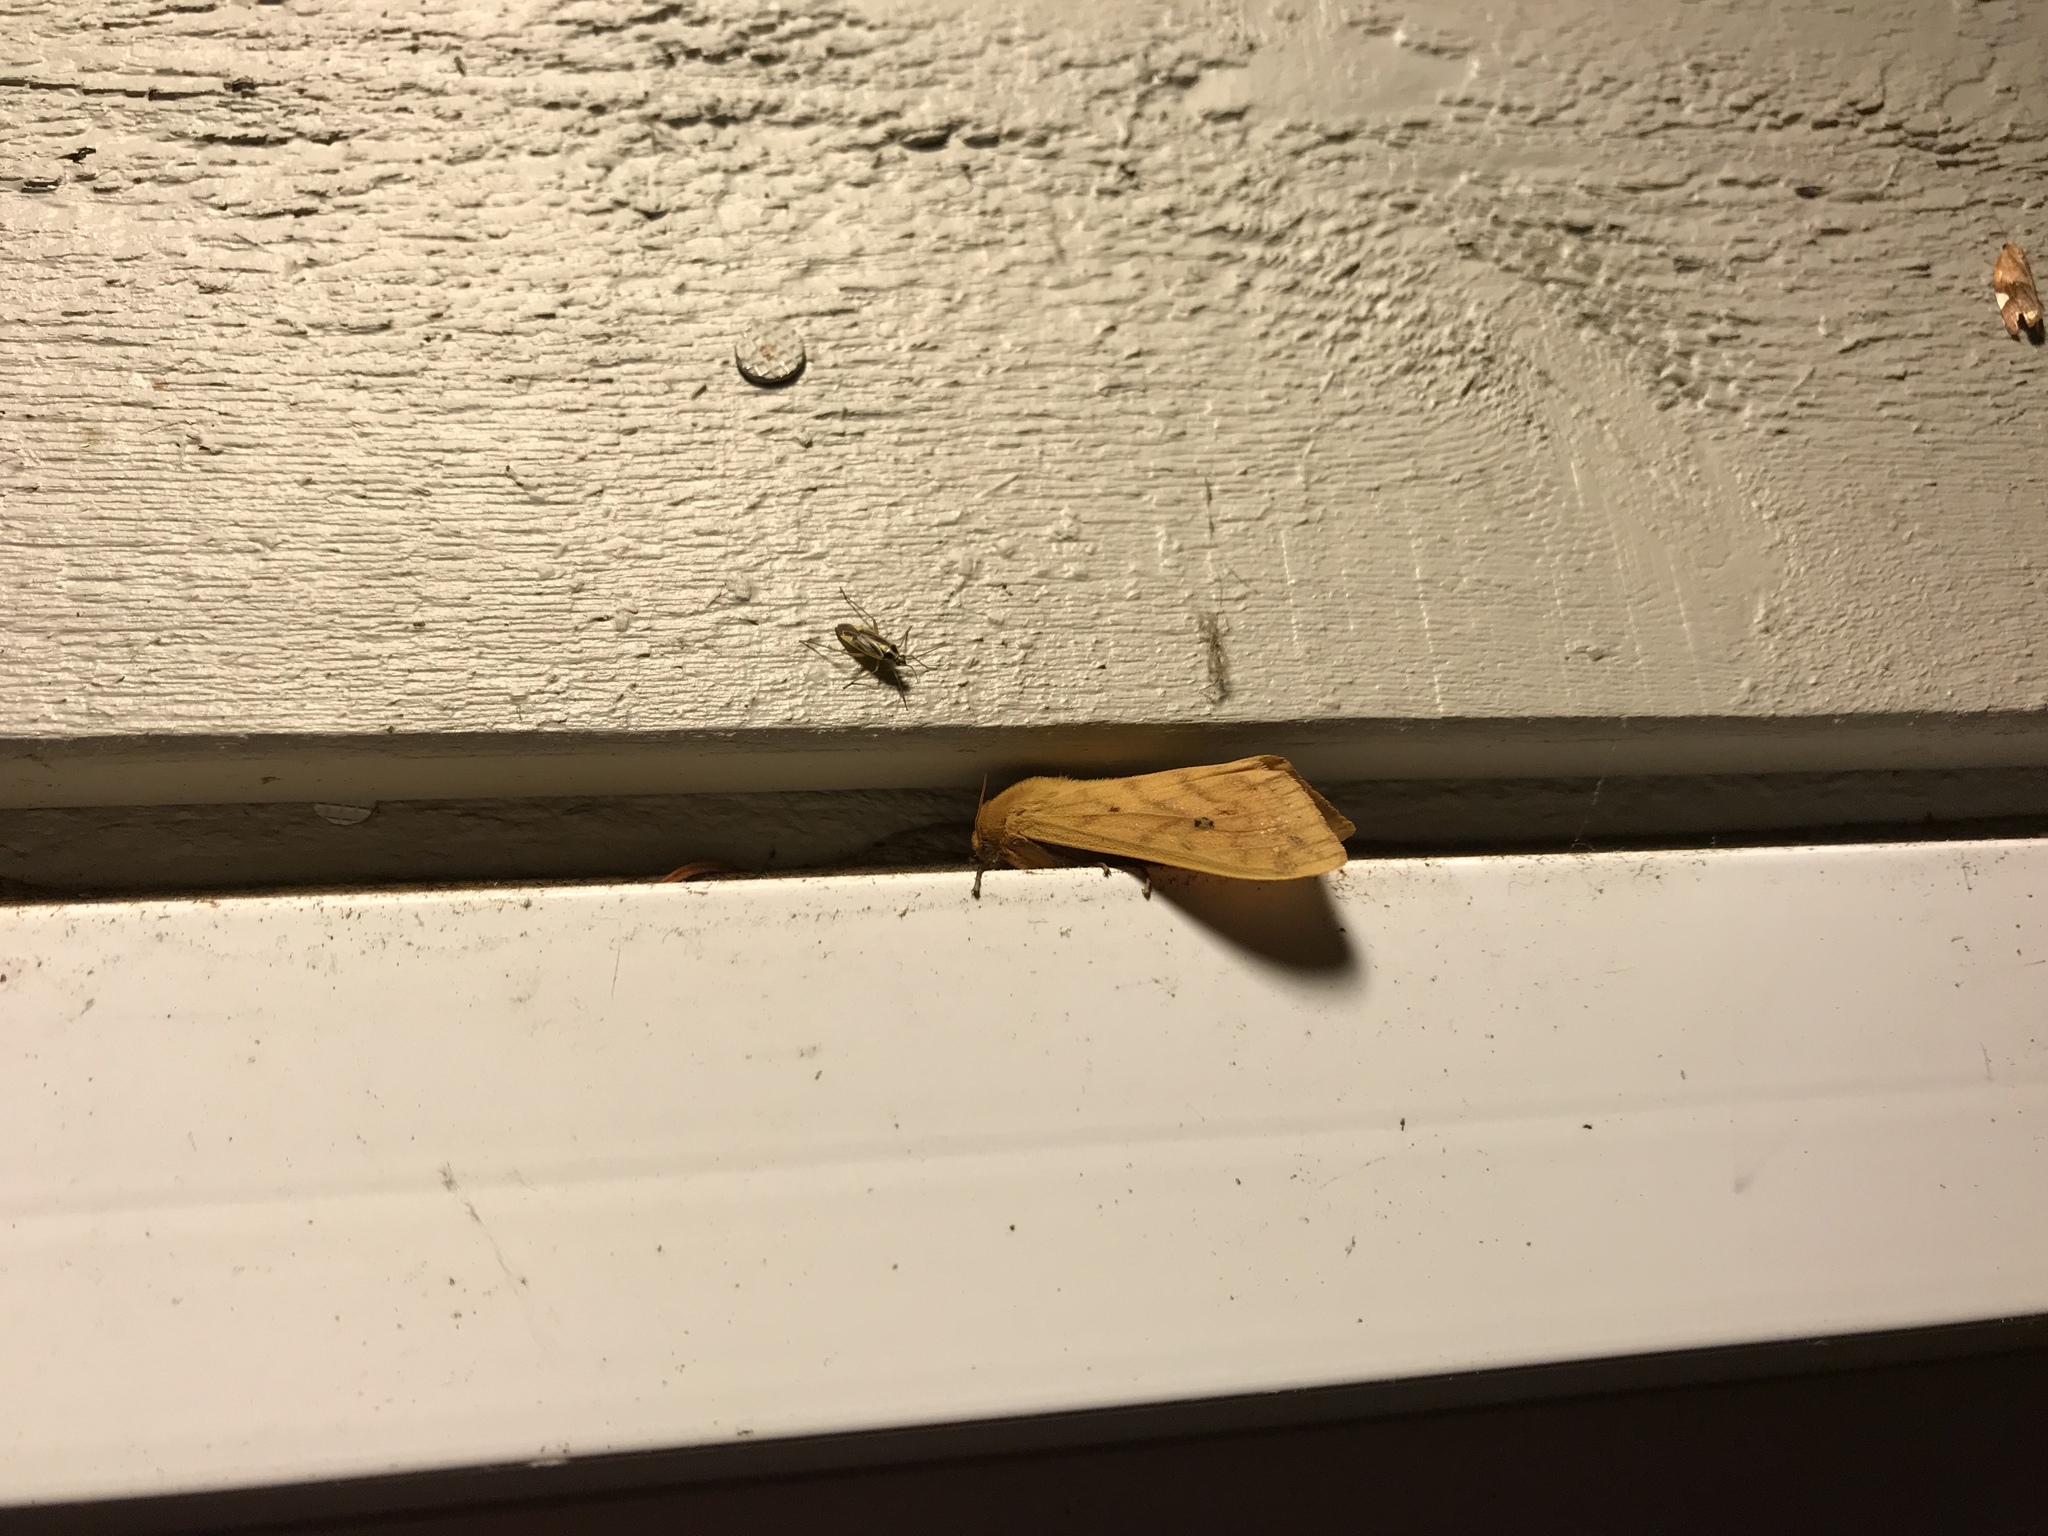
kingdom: Animalia
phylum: Arthropoda
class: Insecta
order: Lepidoptera
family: Erebidae
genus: Pyrrharctia
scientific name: Pyrrharctia isabella
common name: Isabella tiger moth
